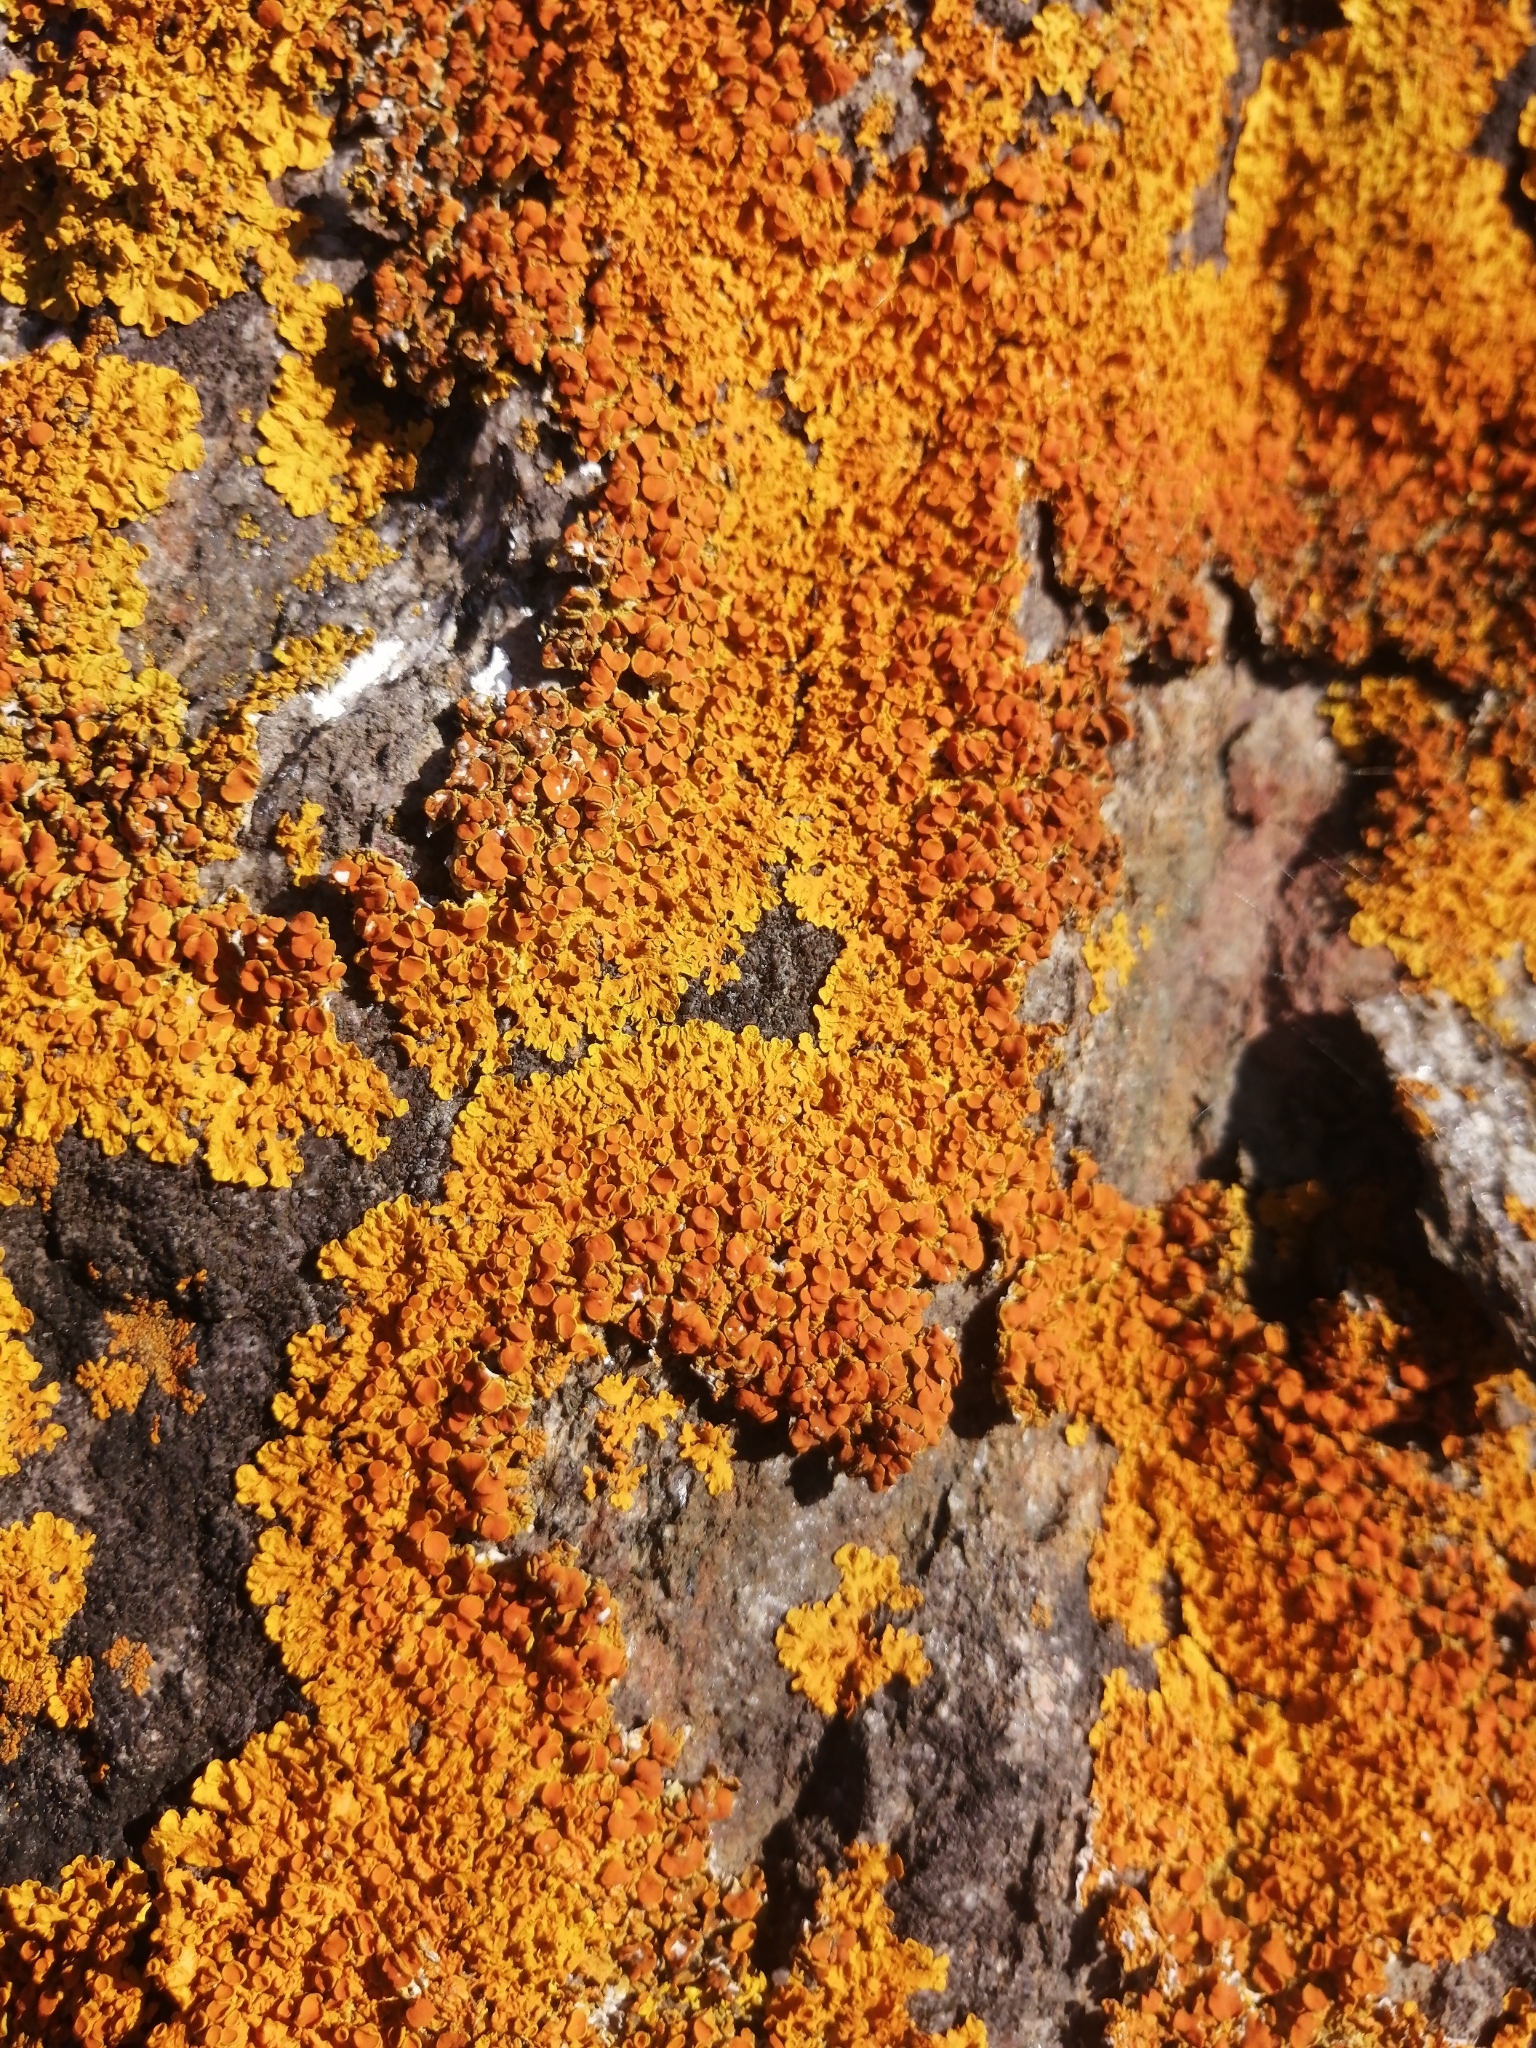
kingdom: Fungi
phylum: Ascomycota
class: Lecanoromycetes
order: Teloschistales
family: Teloschistaceae
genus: Xanthoria
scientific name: Xanthoria parietina
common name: Common orange lichen
